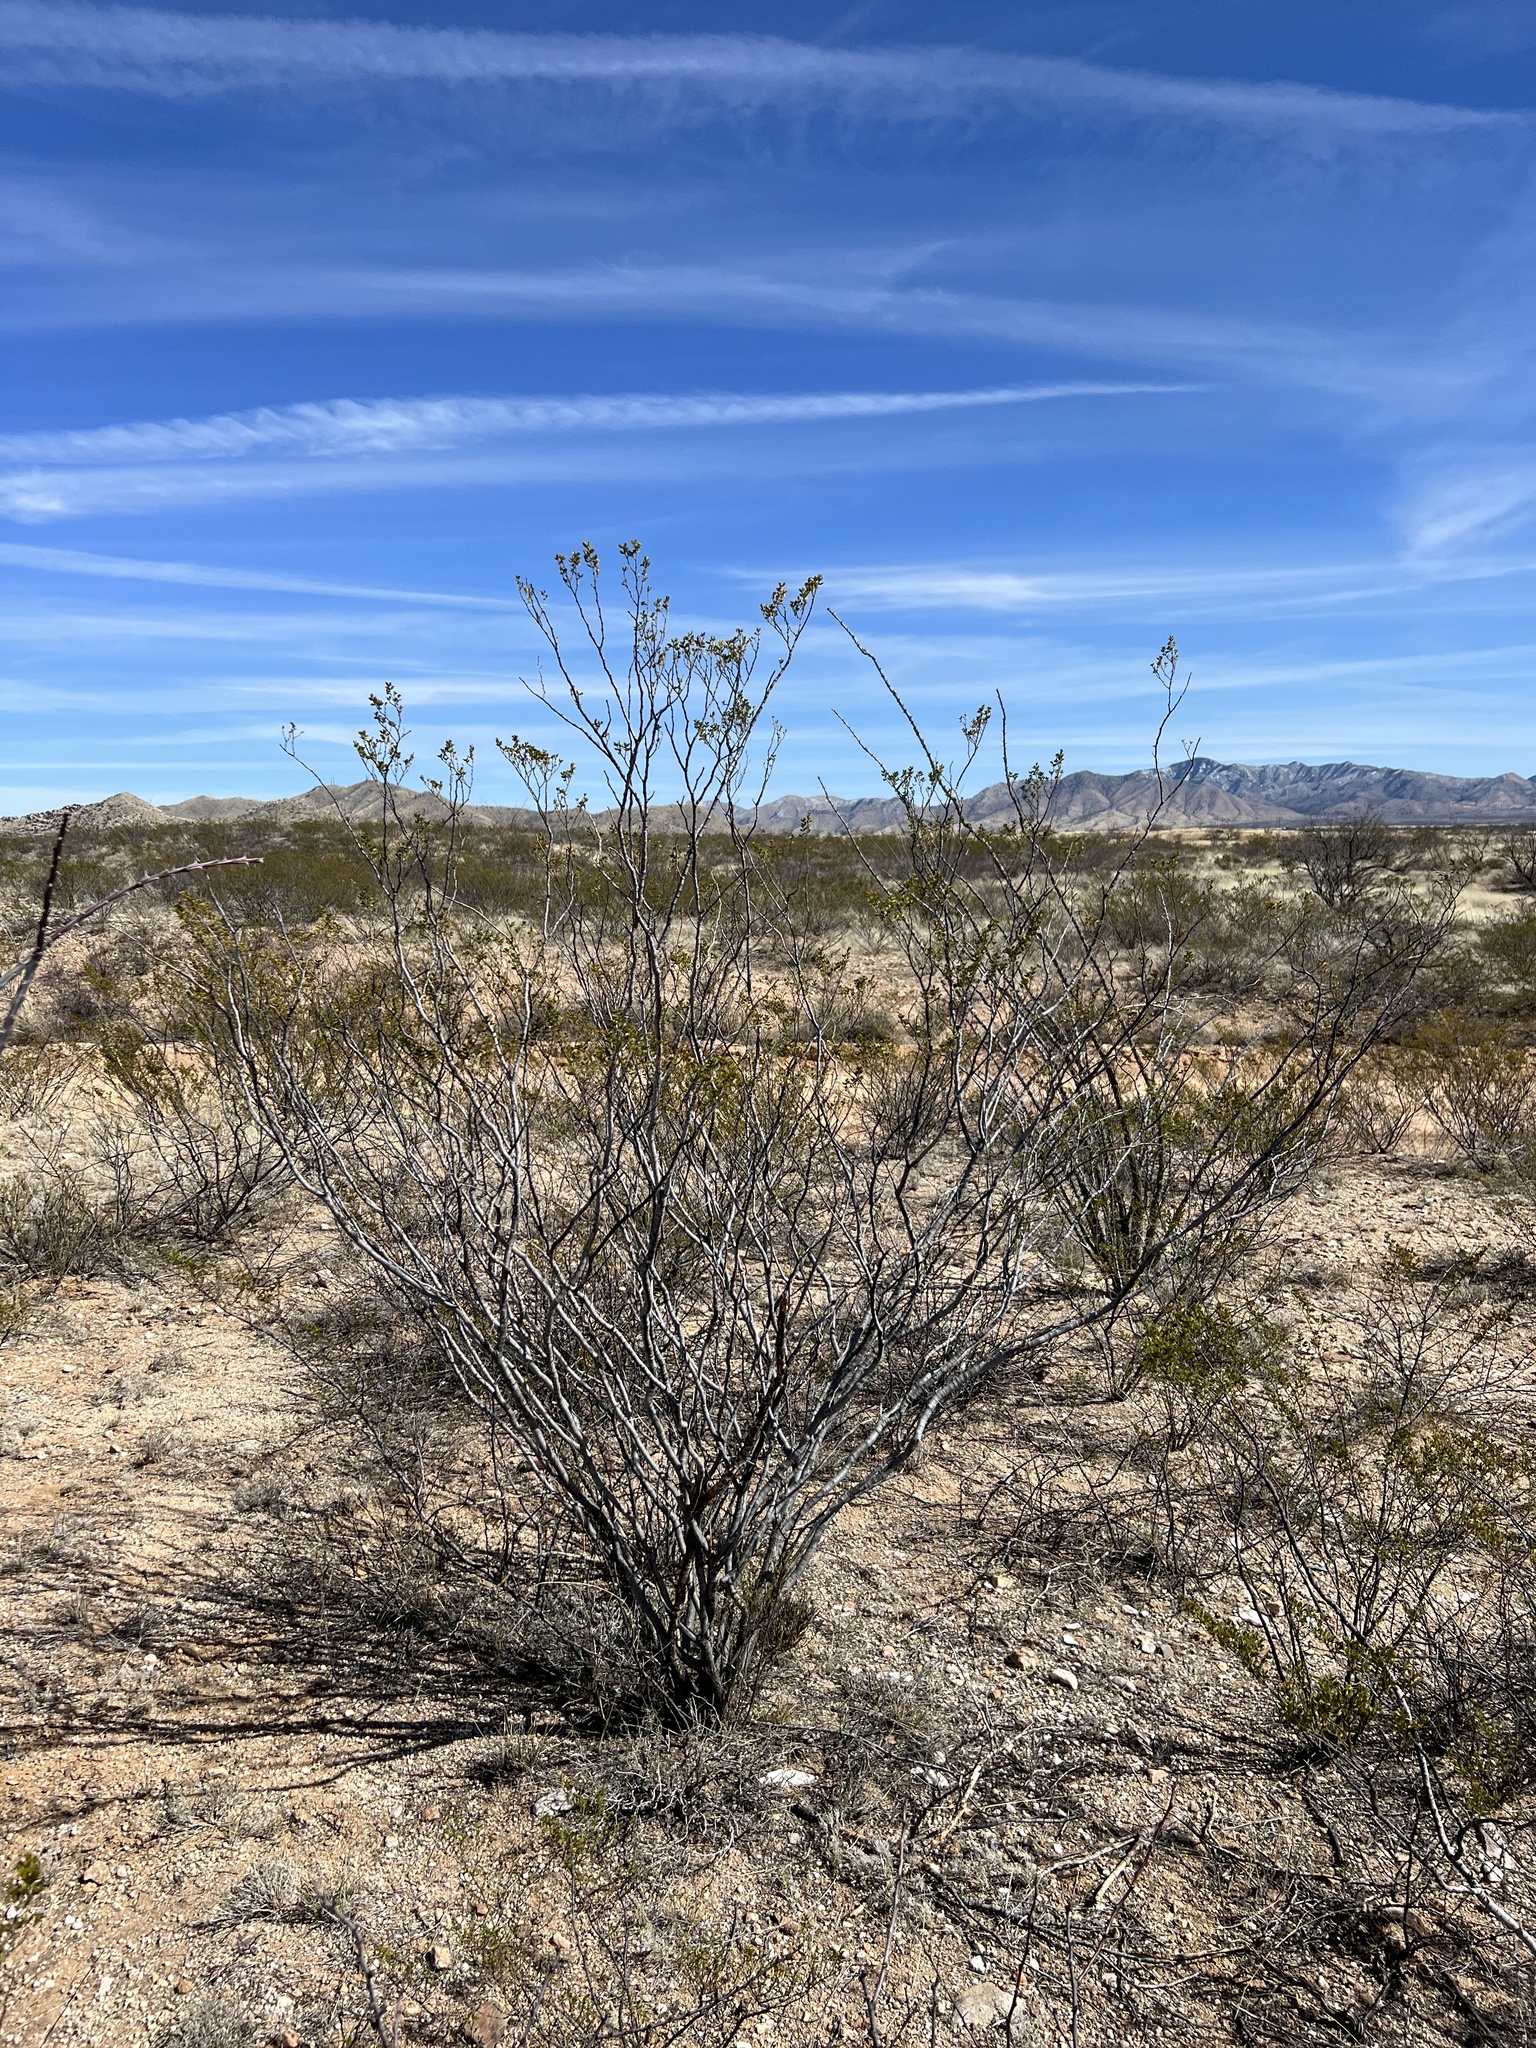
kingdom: Plantae
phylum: Tracheophyta
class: Magnoliopsida
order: Zygophyllales
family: Zygophyllaceae
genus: Larrea
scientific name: Larrea tridentata
